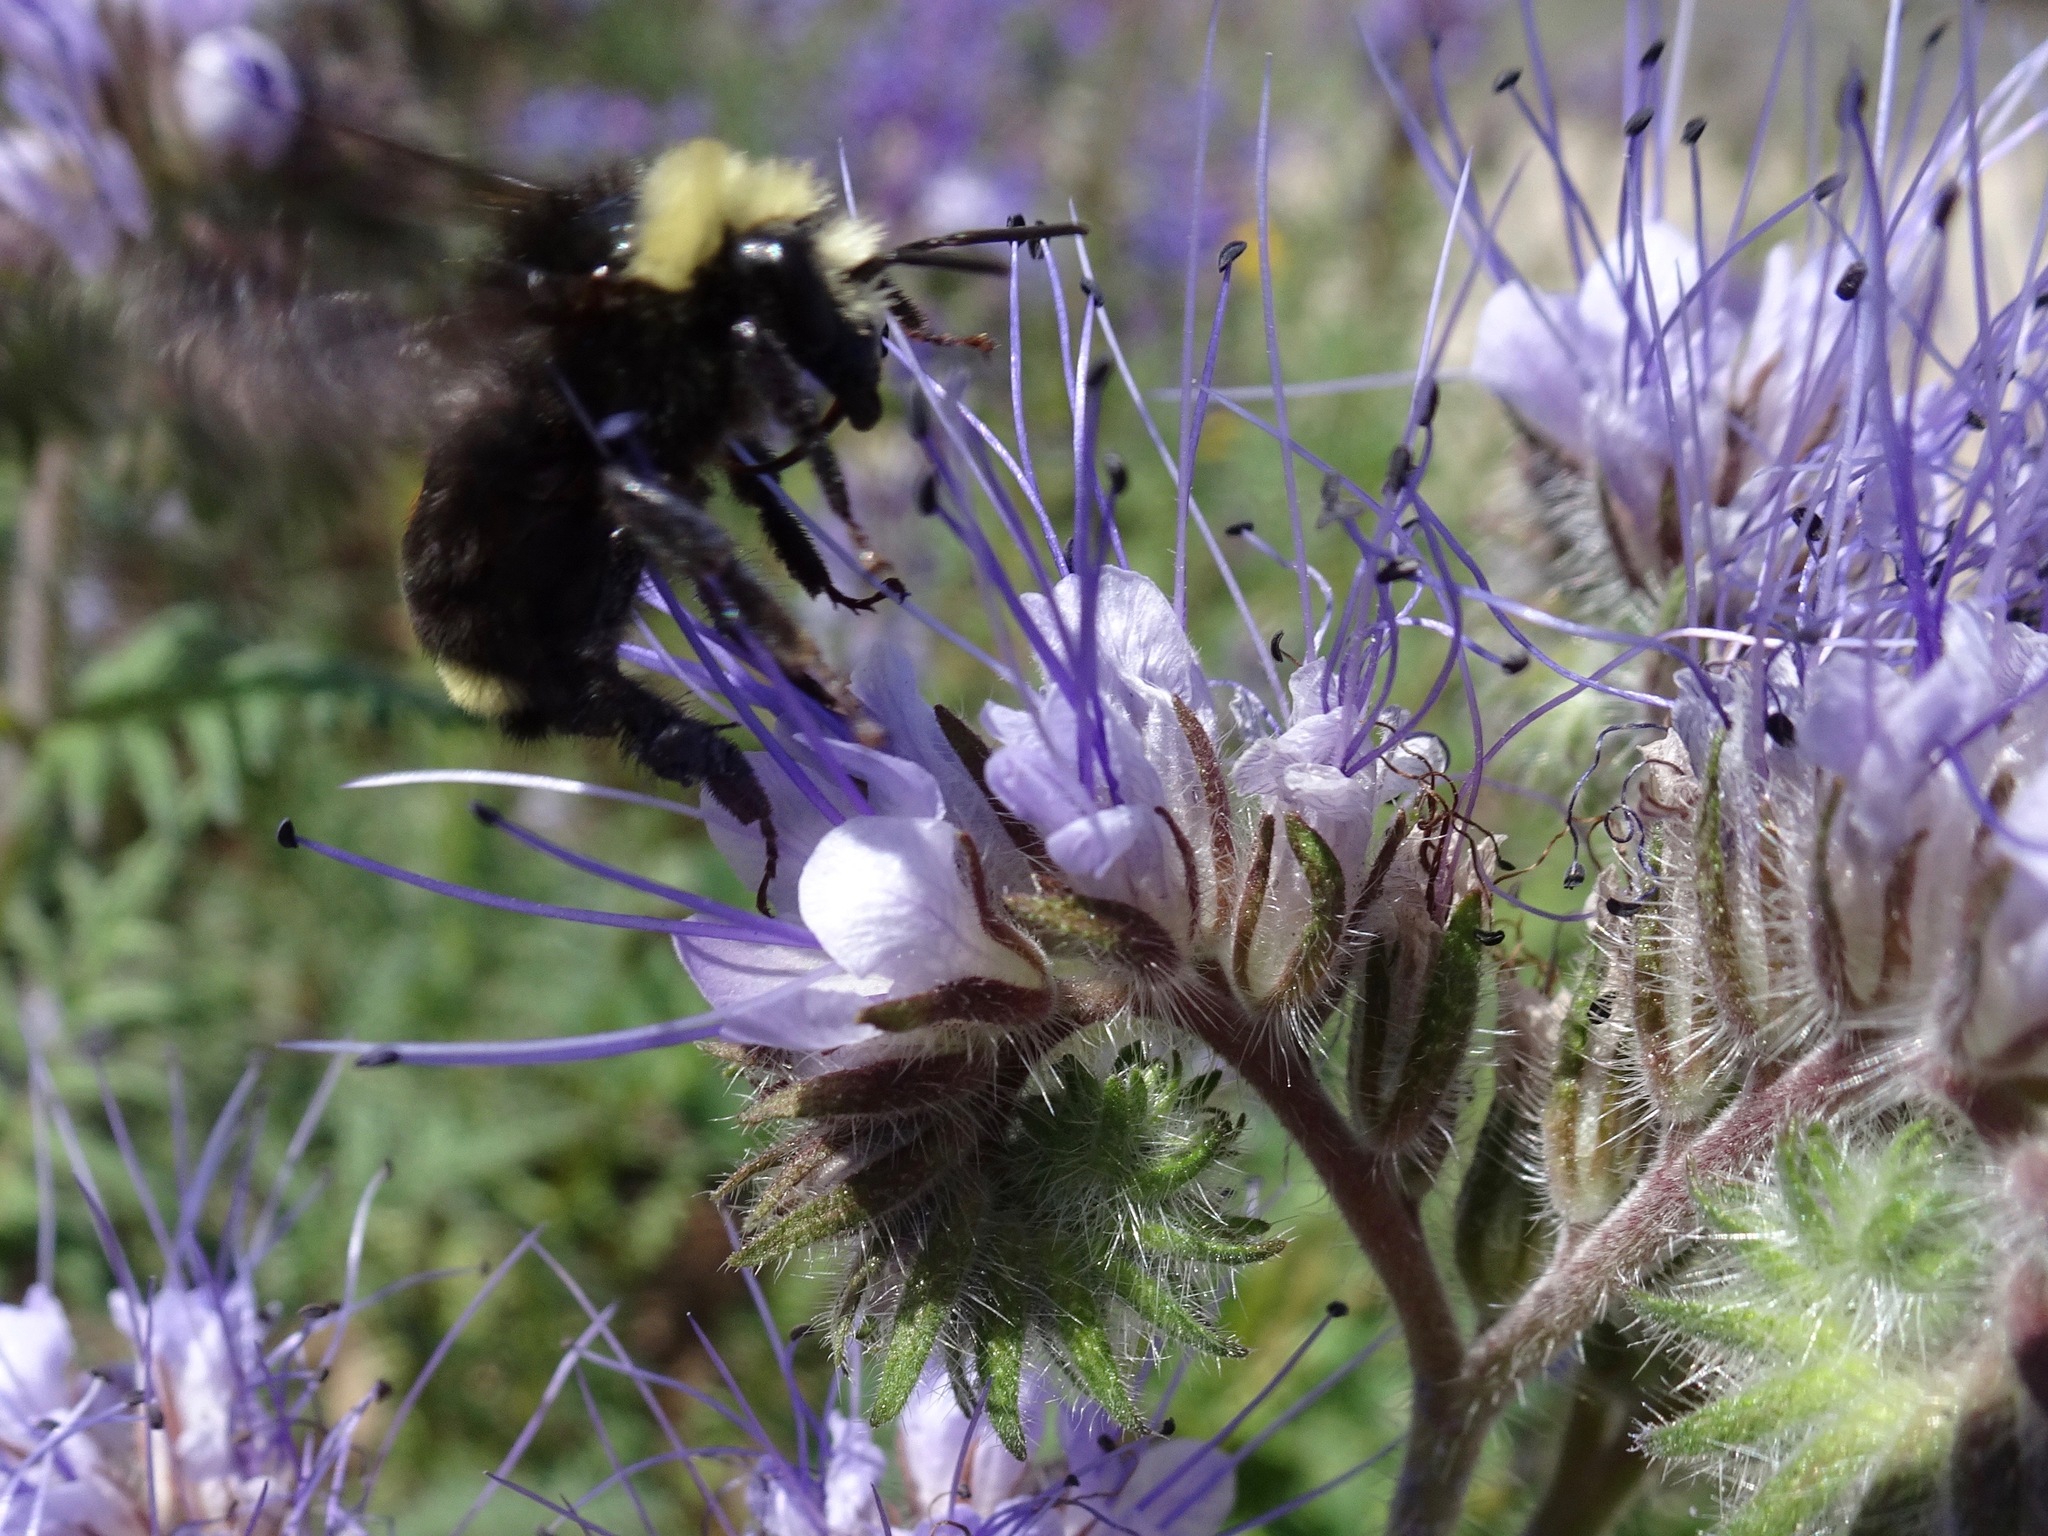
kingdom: Animalia
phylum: Arthropoda
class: Insecta
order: Hymenoptera
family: Apidae
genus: Bombus
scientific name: Bombus vosnesenskii
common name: Vosnesensky bumble bee
